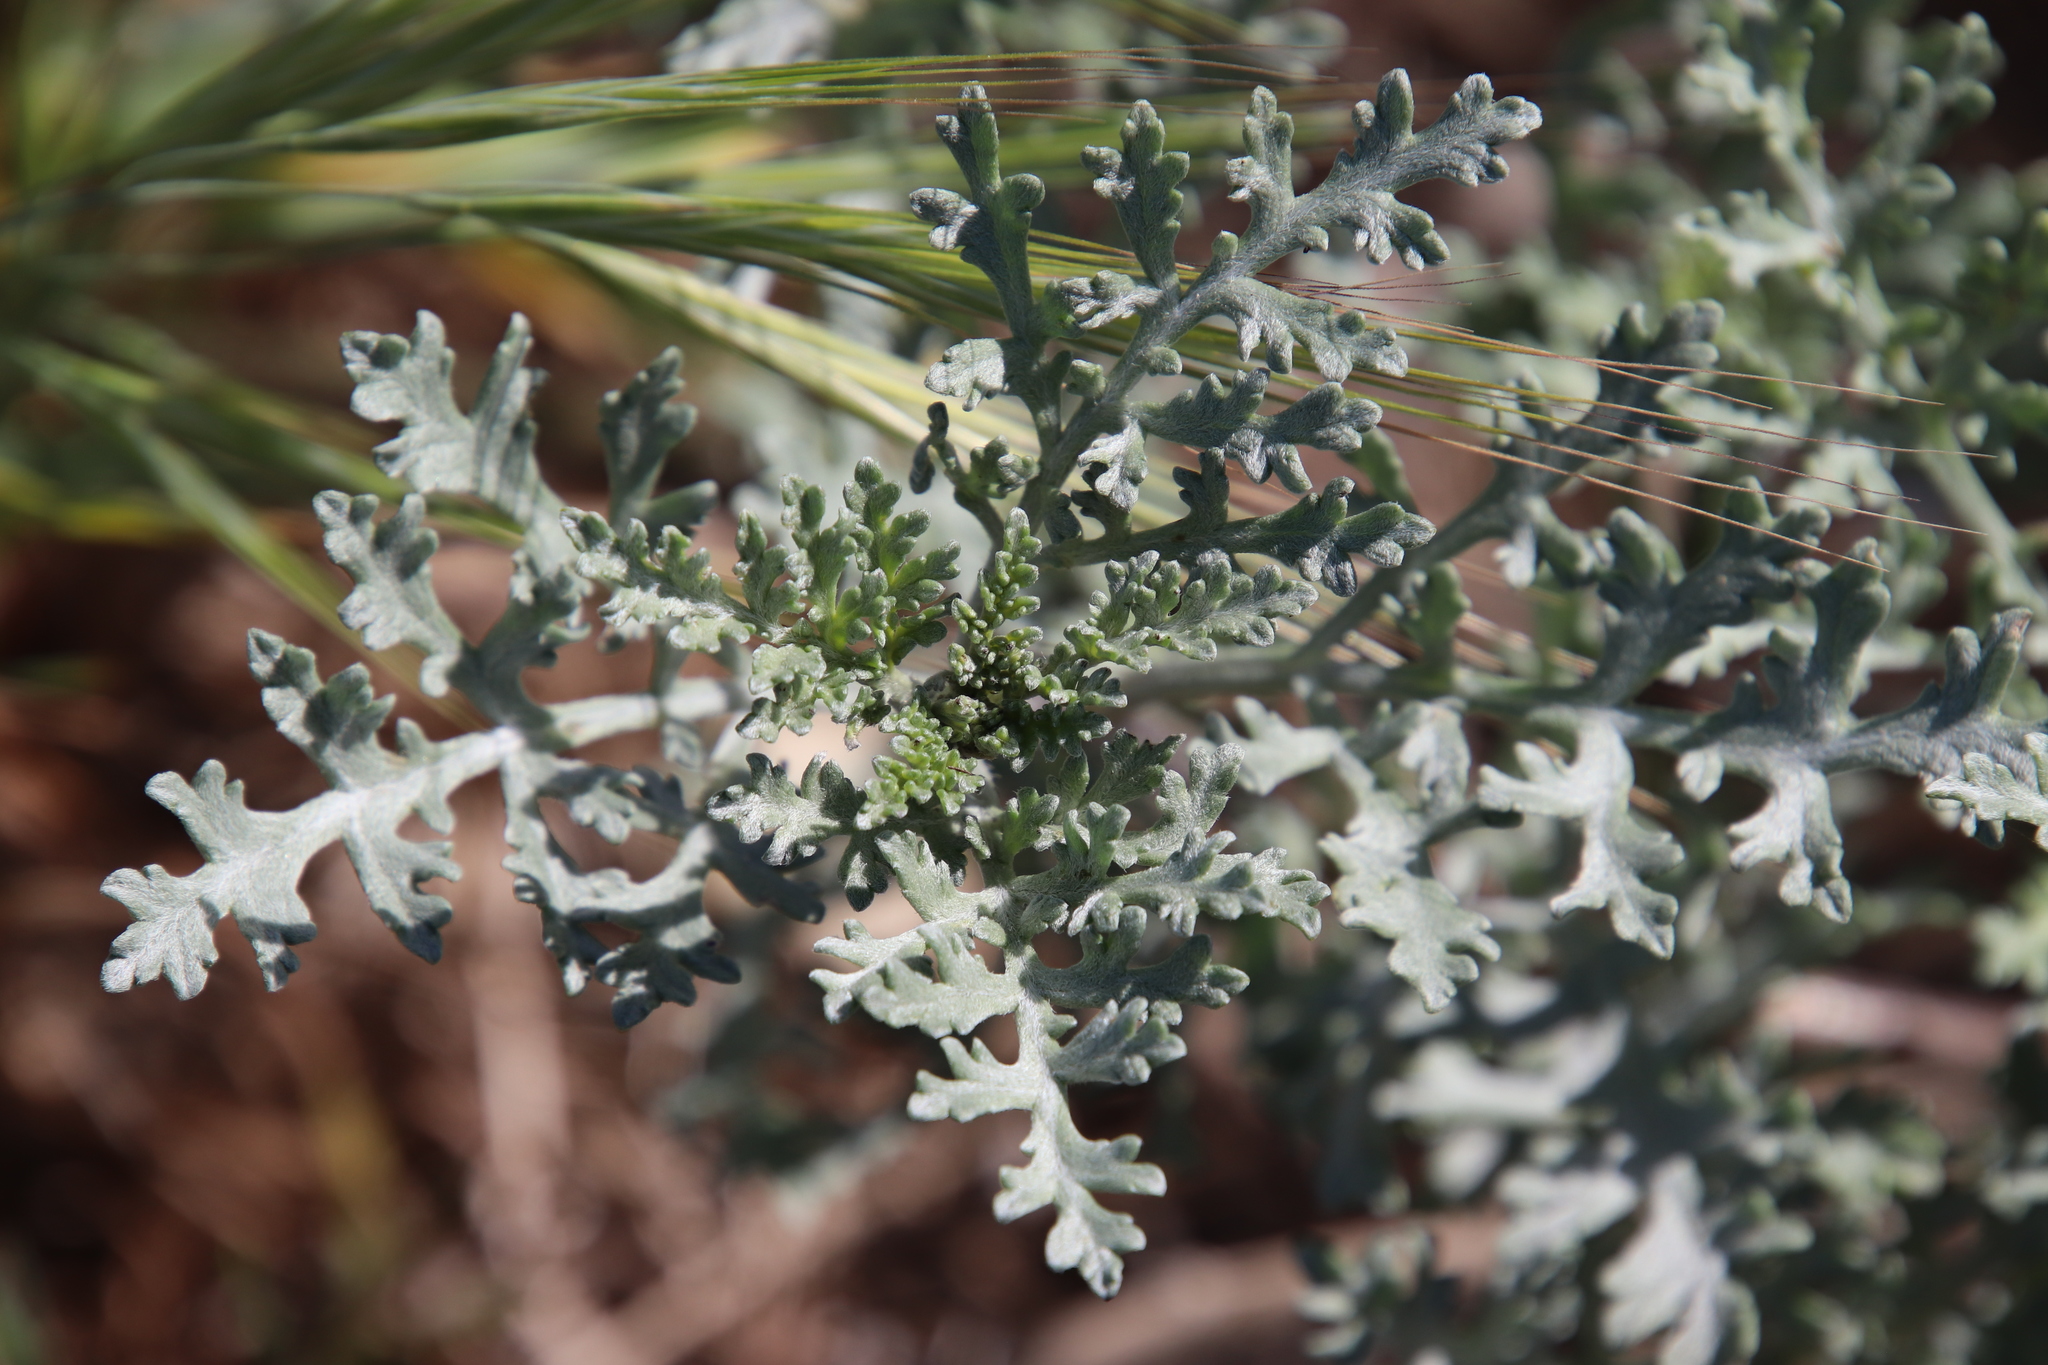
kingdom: Plantae
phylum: Tracheophyta
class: Magnoliopsida
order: Asterales
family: Asteraceae
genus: Ambrosia
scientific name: Ambrosia chamissonis
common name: Beachbur
